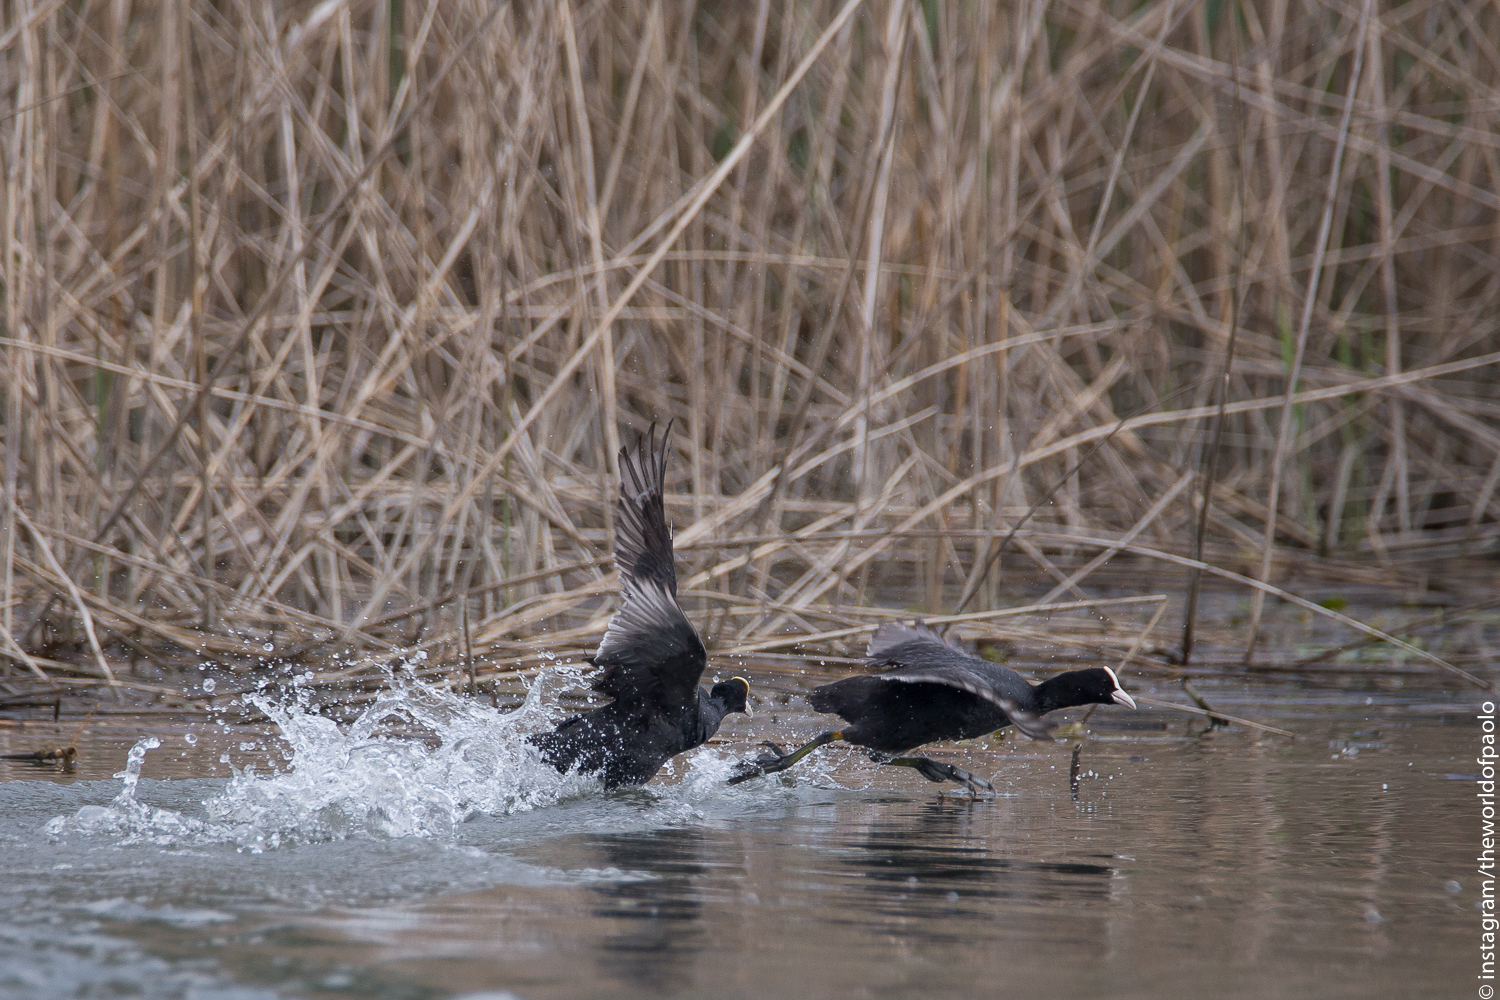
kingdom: Animalia
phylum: Chordata
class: Aves
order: Gruiformes
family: Rallidae
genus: Fulica
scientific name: Fulica atra
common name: Eurasian coot
